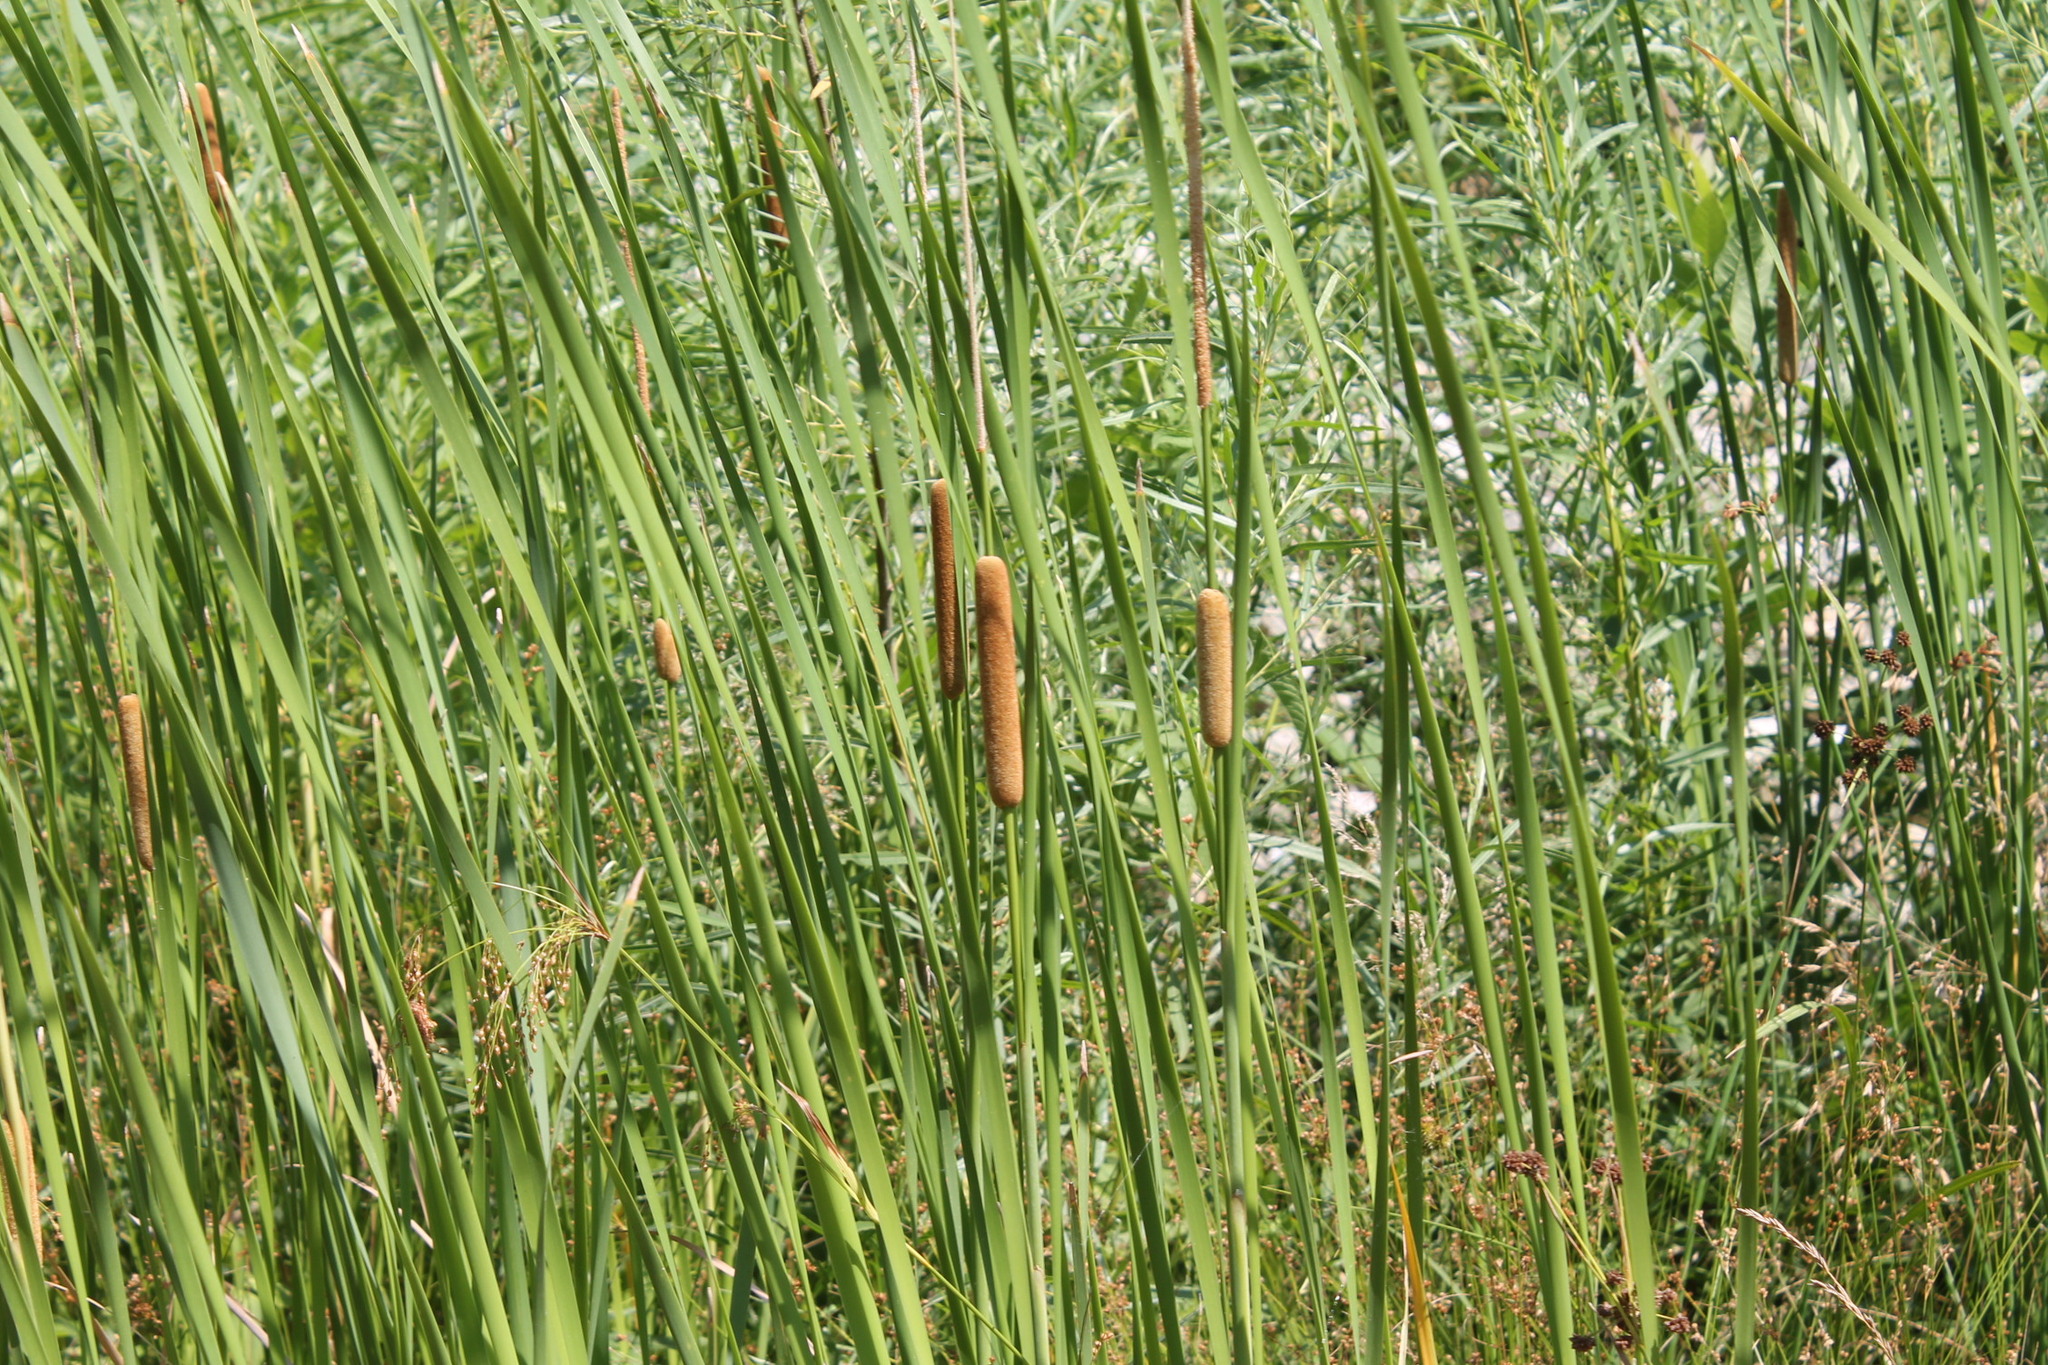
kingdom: Plantae
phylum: Tracheophyta
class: Liliopsida
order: Poales
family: Typhaceae
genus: Typha
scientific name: Typha angustifolia
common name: Lesser bulrush
